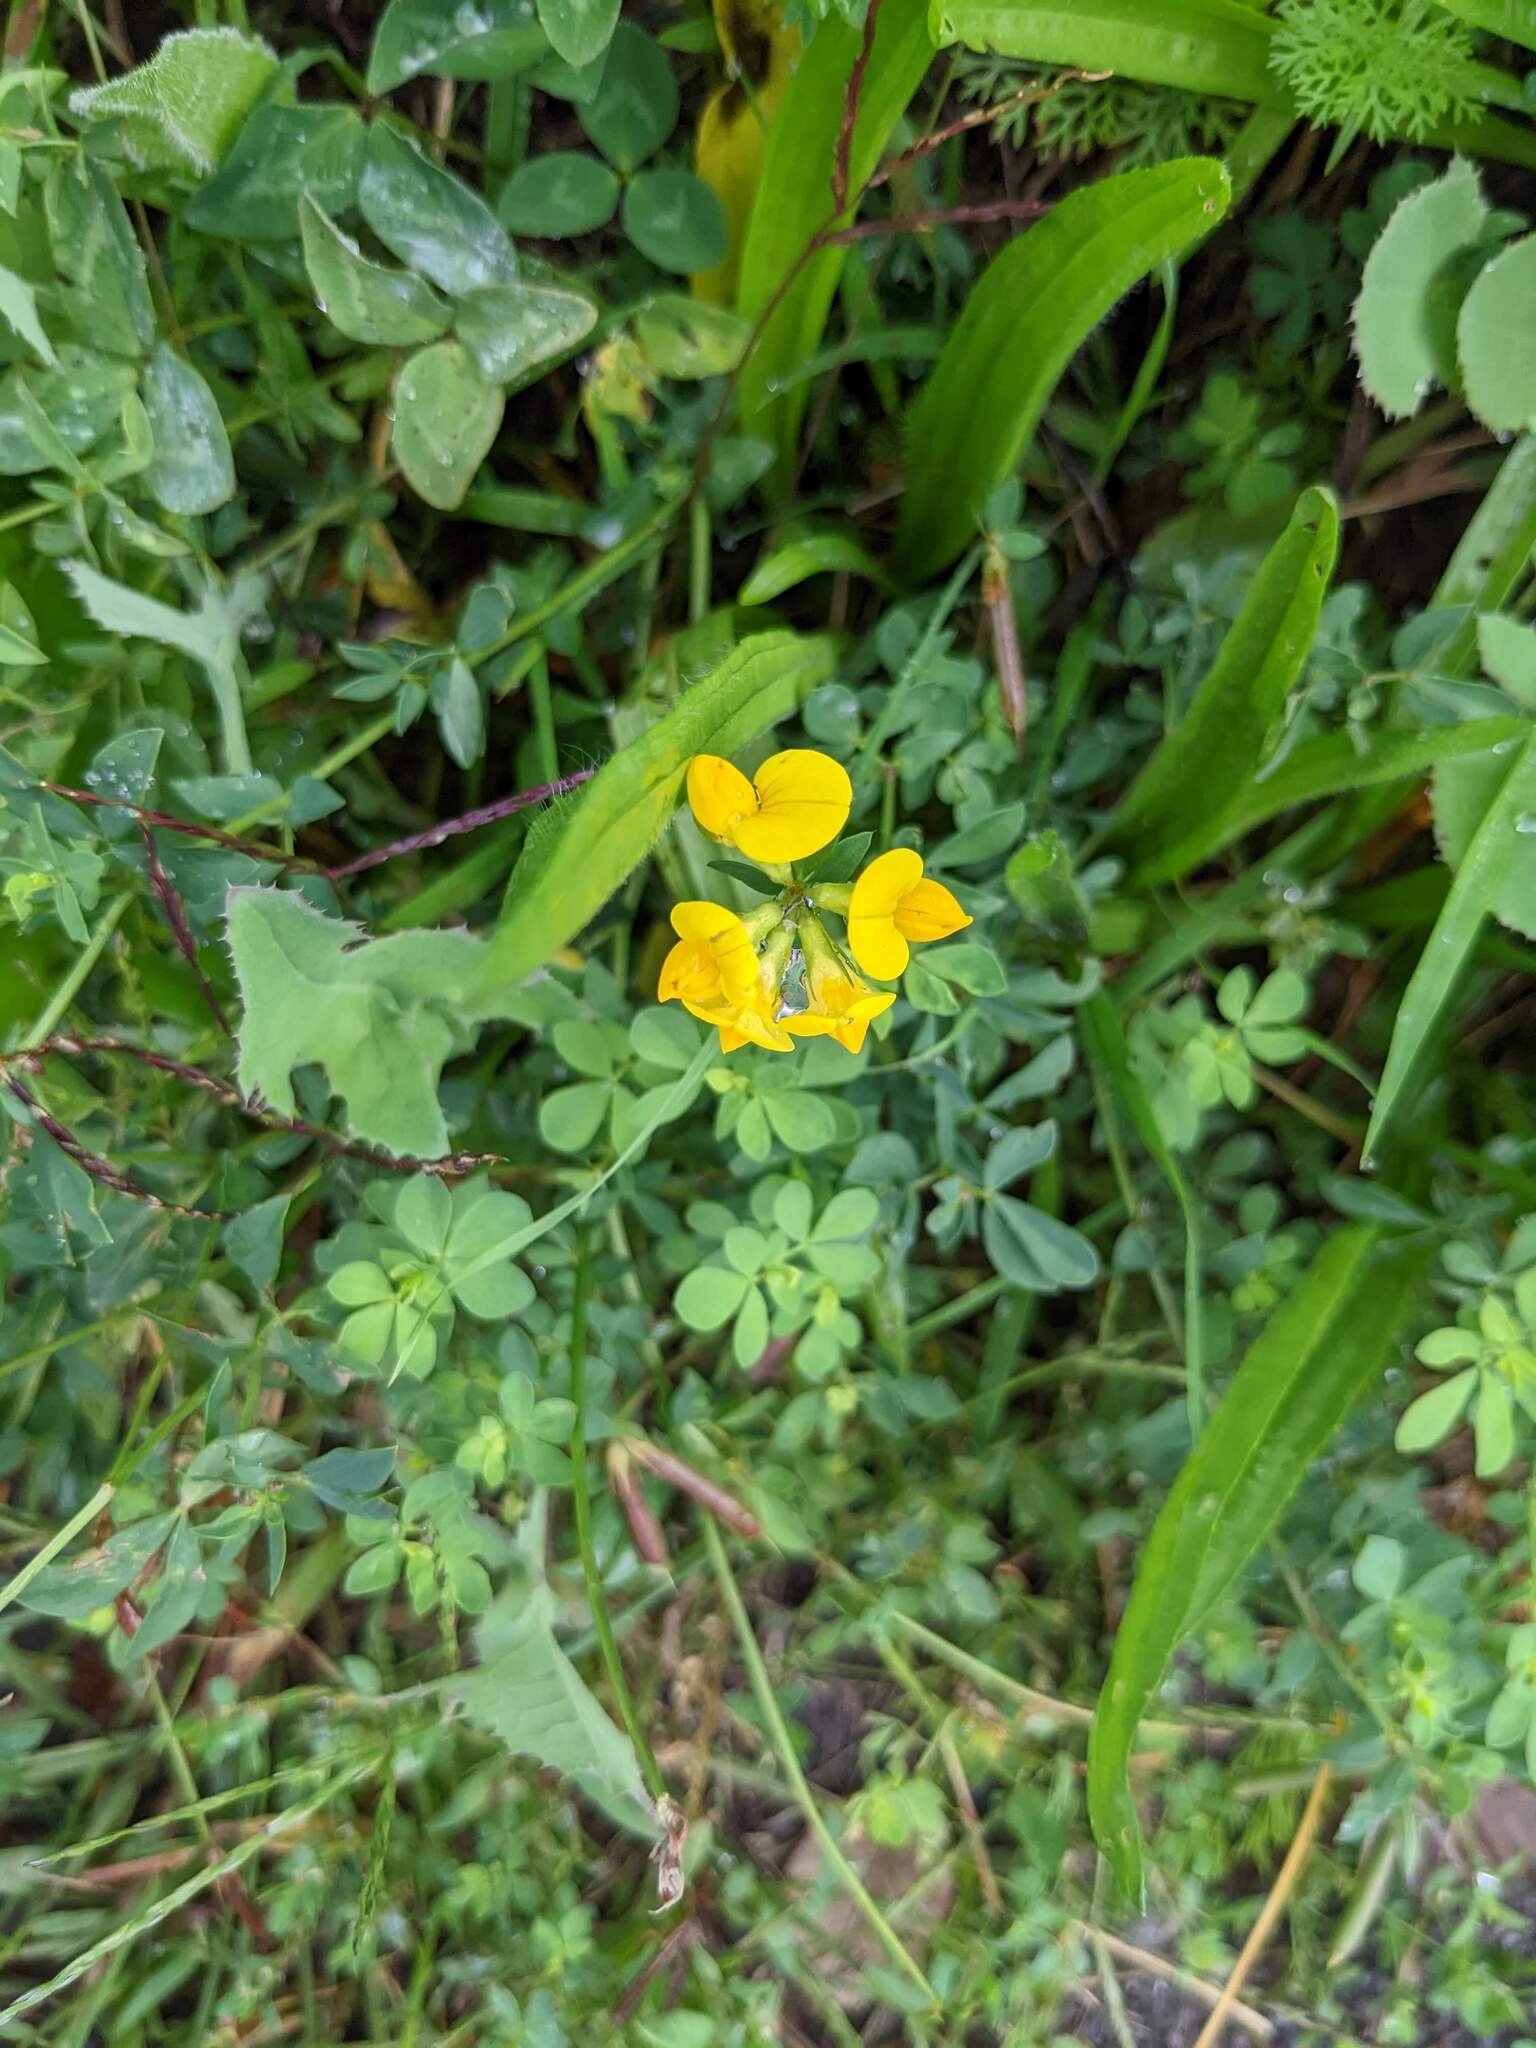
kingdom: Plantae
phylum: Tracheophyta
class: Magnoliopsida
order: Fabales
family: Fabaceae
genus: Lotus
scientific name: Lotus corniculatus
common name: Common bird's-foot-trefoil
